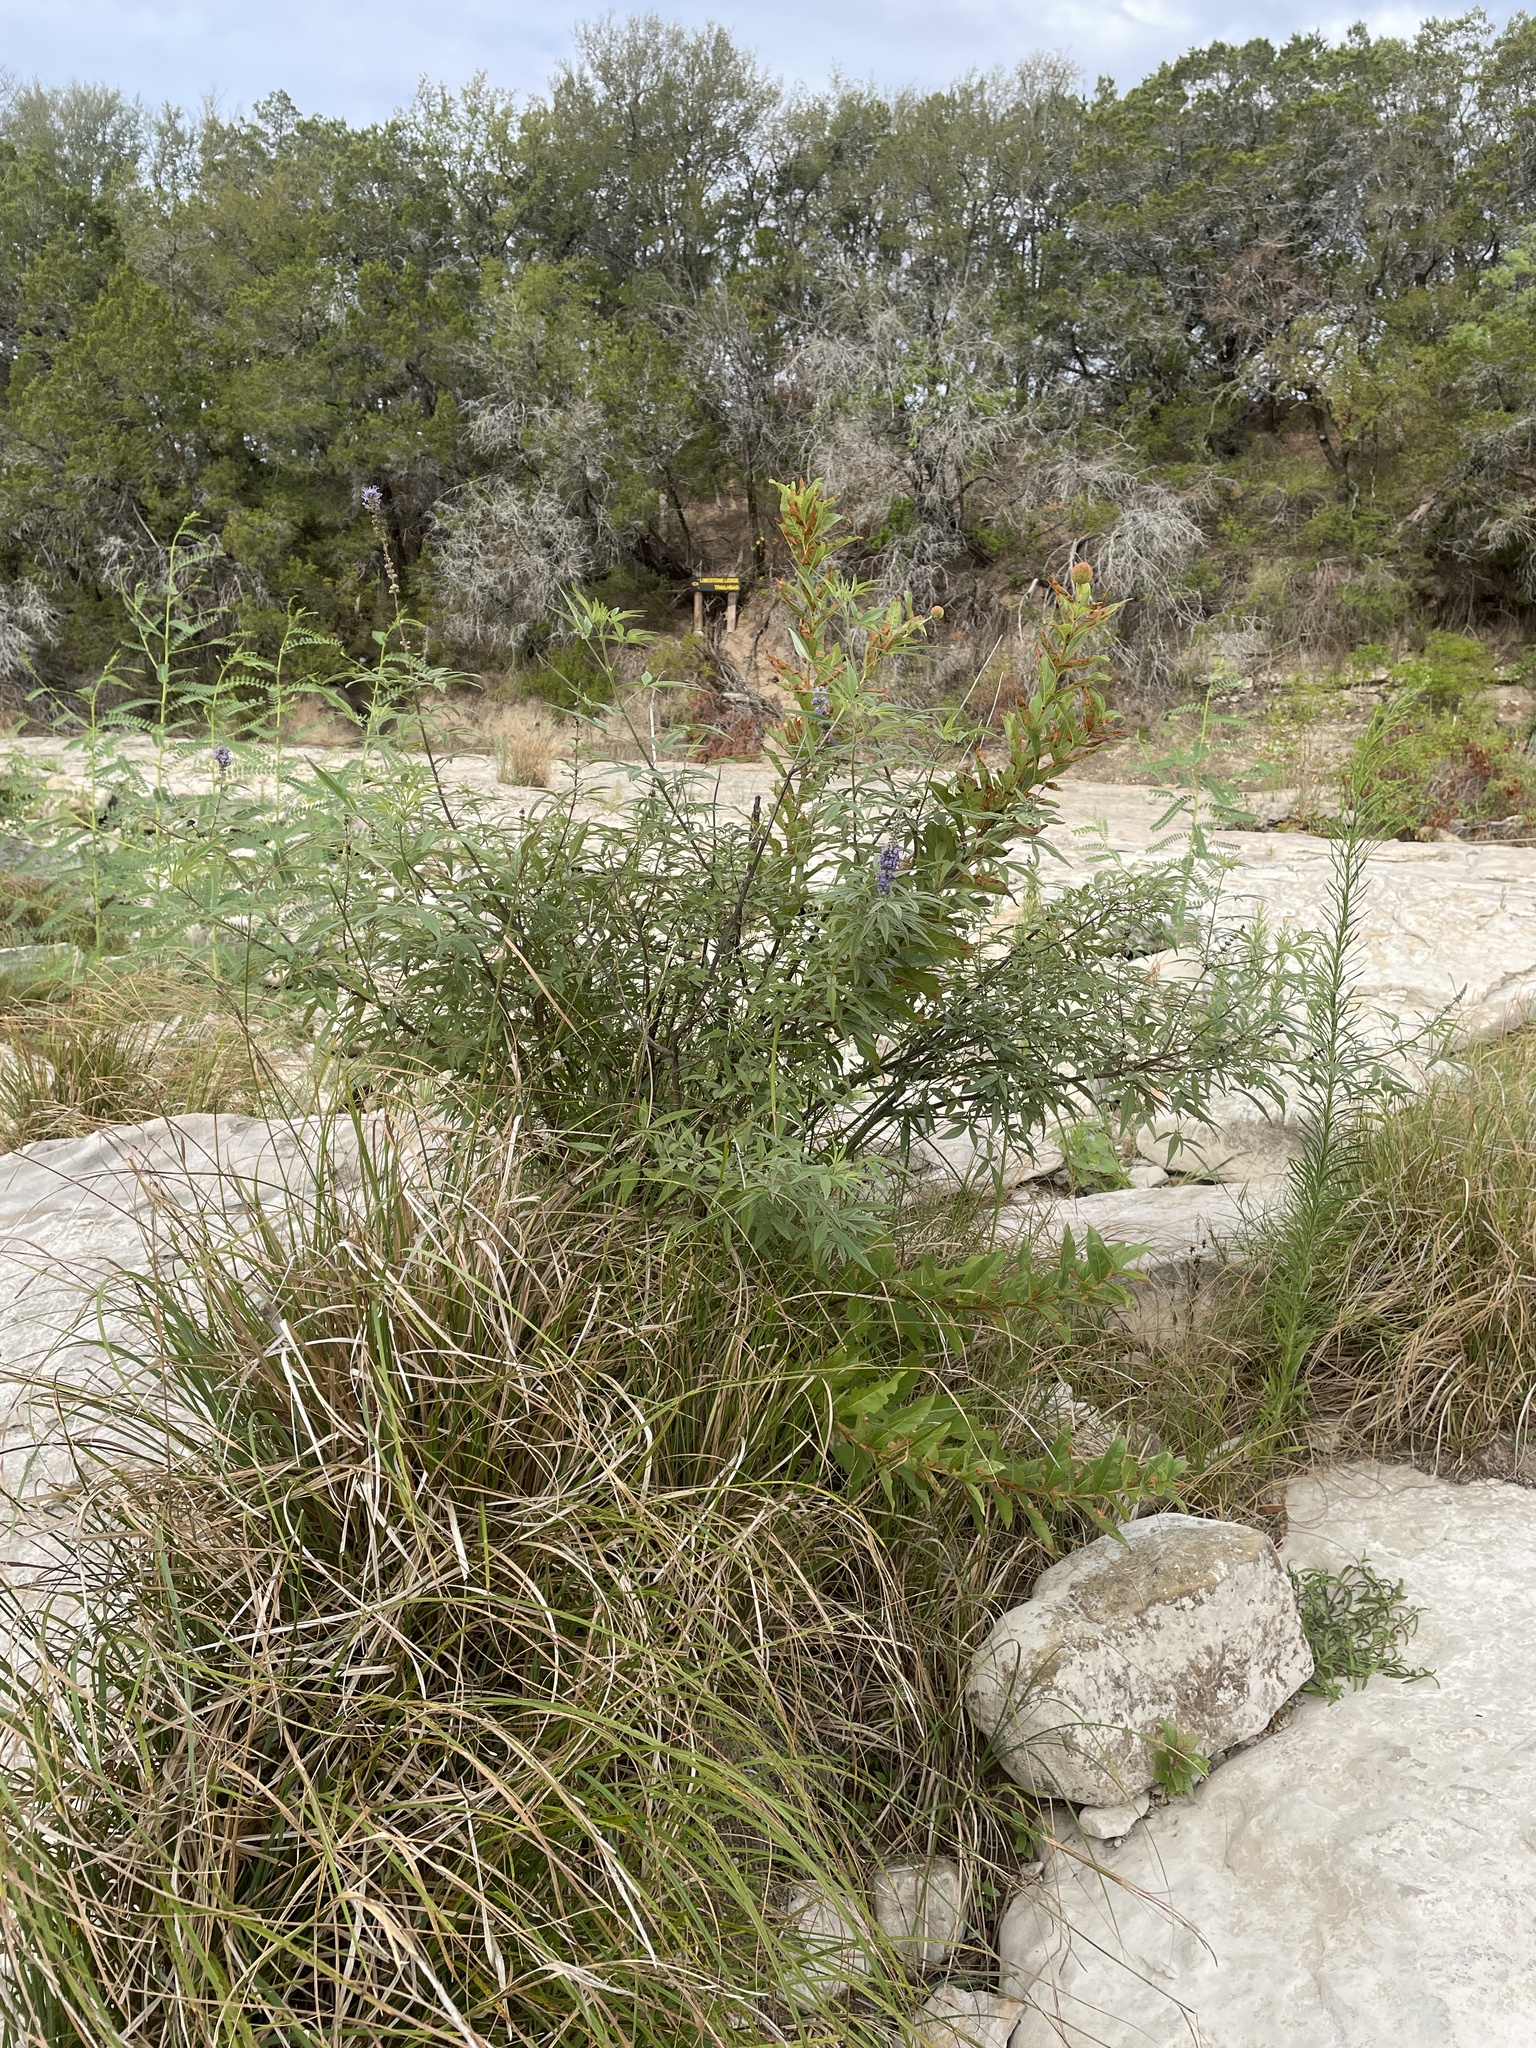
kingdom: Plantae
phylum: Tracheophyta
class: Magnoliopsida
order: Lamiales
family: Lamiaceae
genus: Vitex
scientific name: Vitex agnus-castus
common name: Chasteberry
